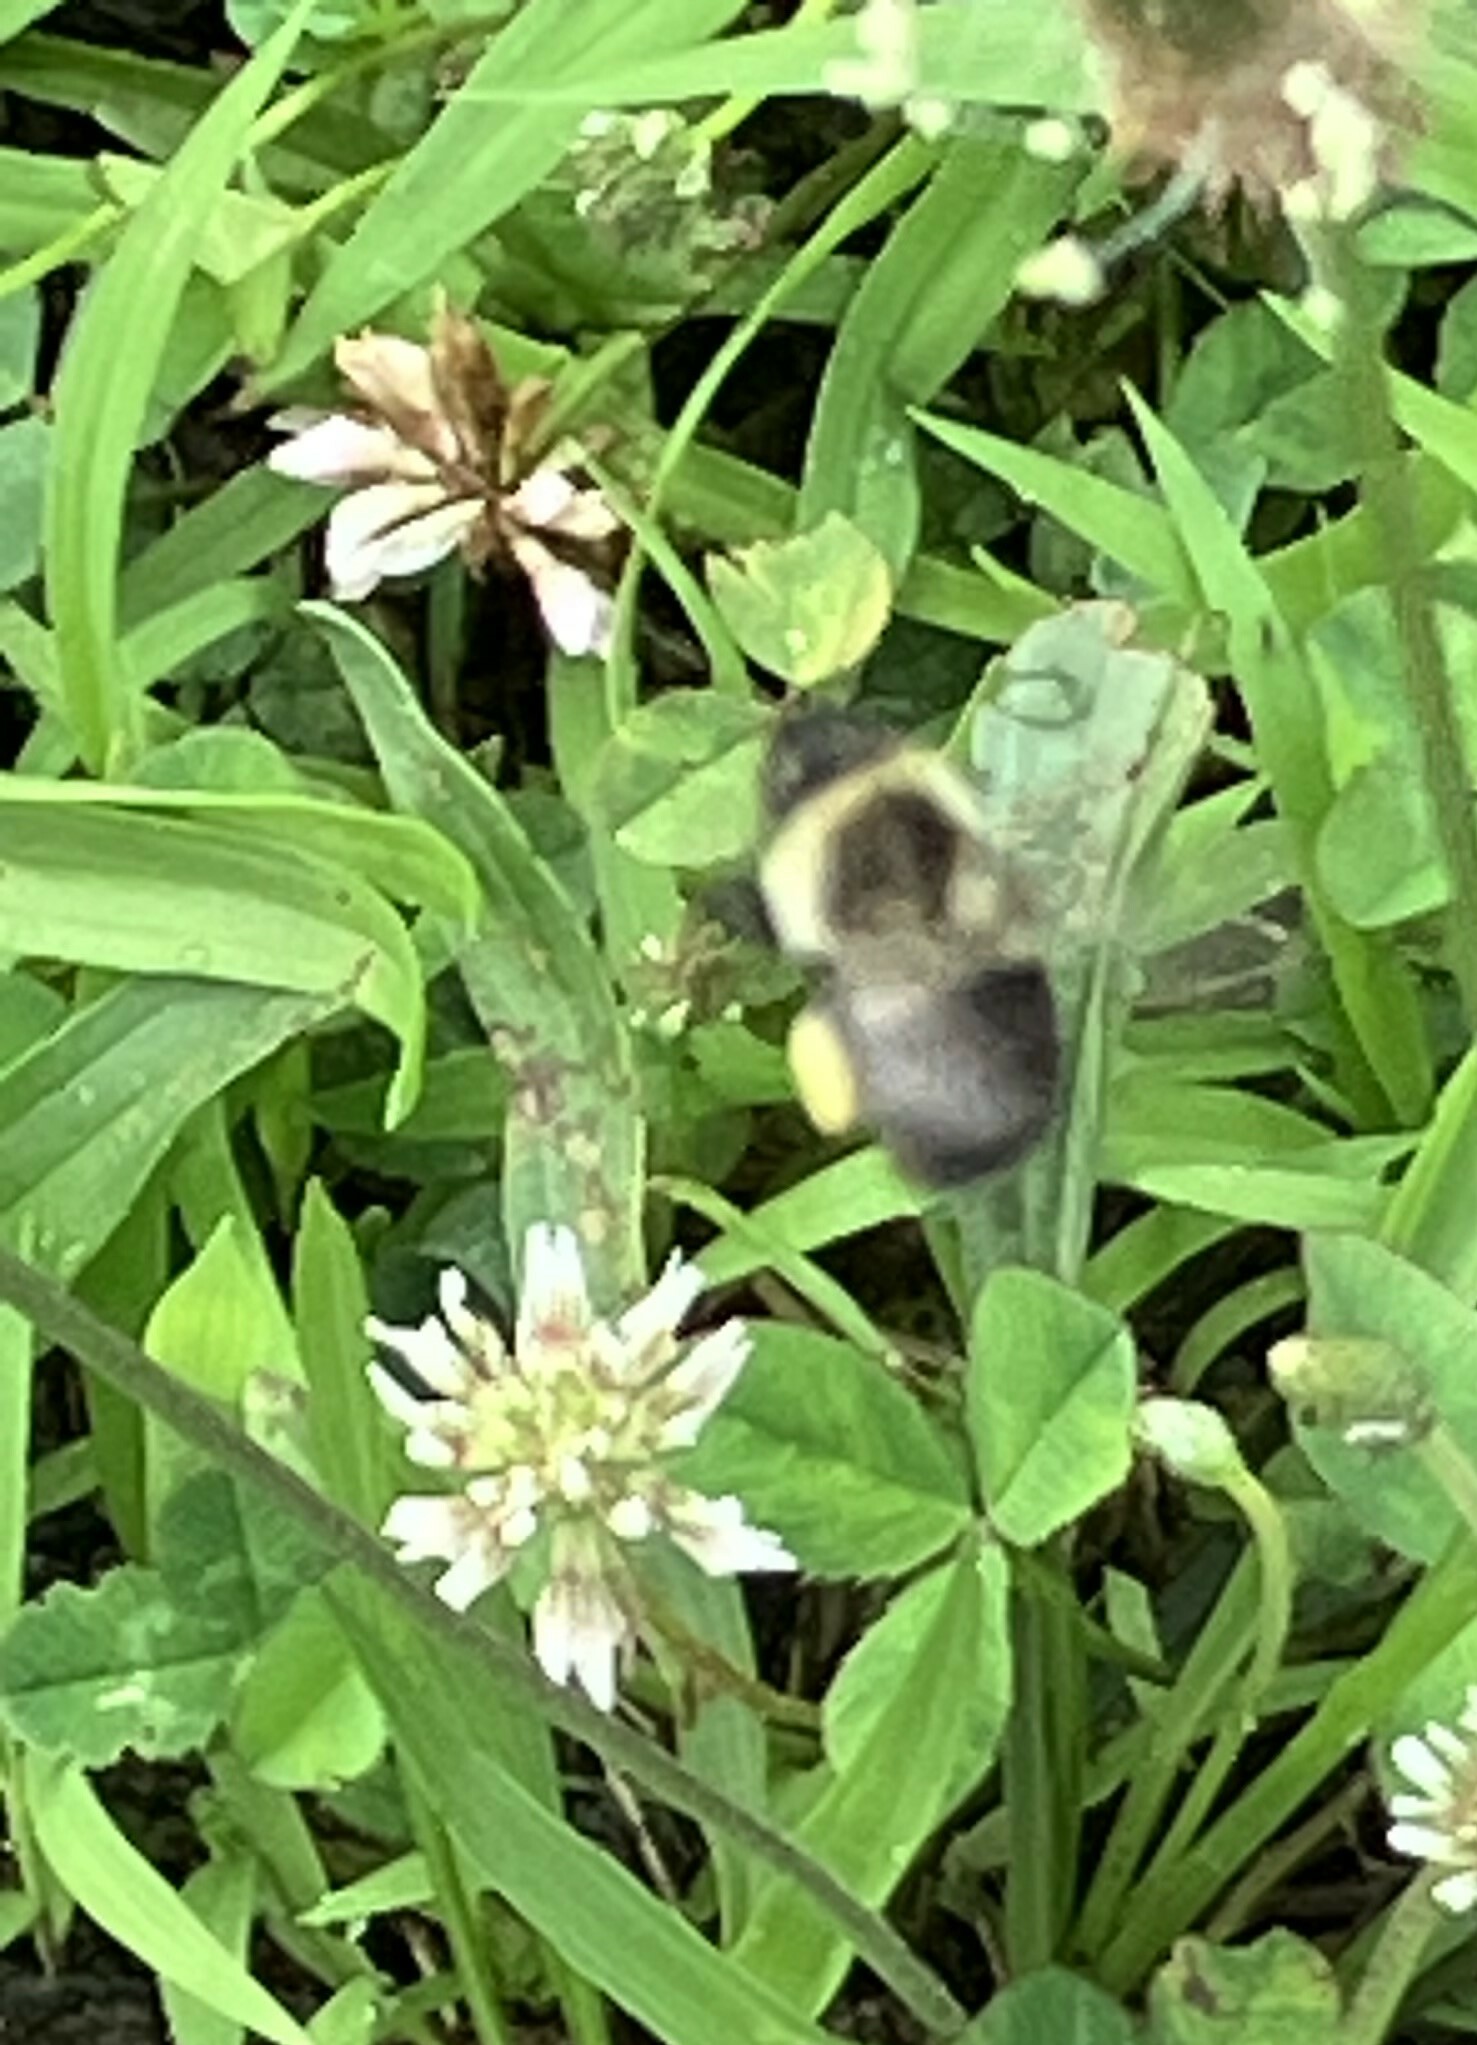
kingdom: Animalia
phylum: Arthropoda
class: Insecta
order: Hymenoptera
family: Apidae
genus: Bombus
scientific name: Bombus impatiens
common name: Common eastern bumble bee
